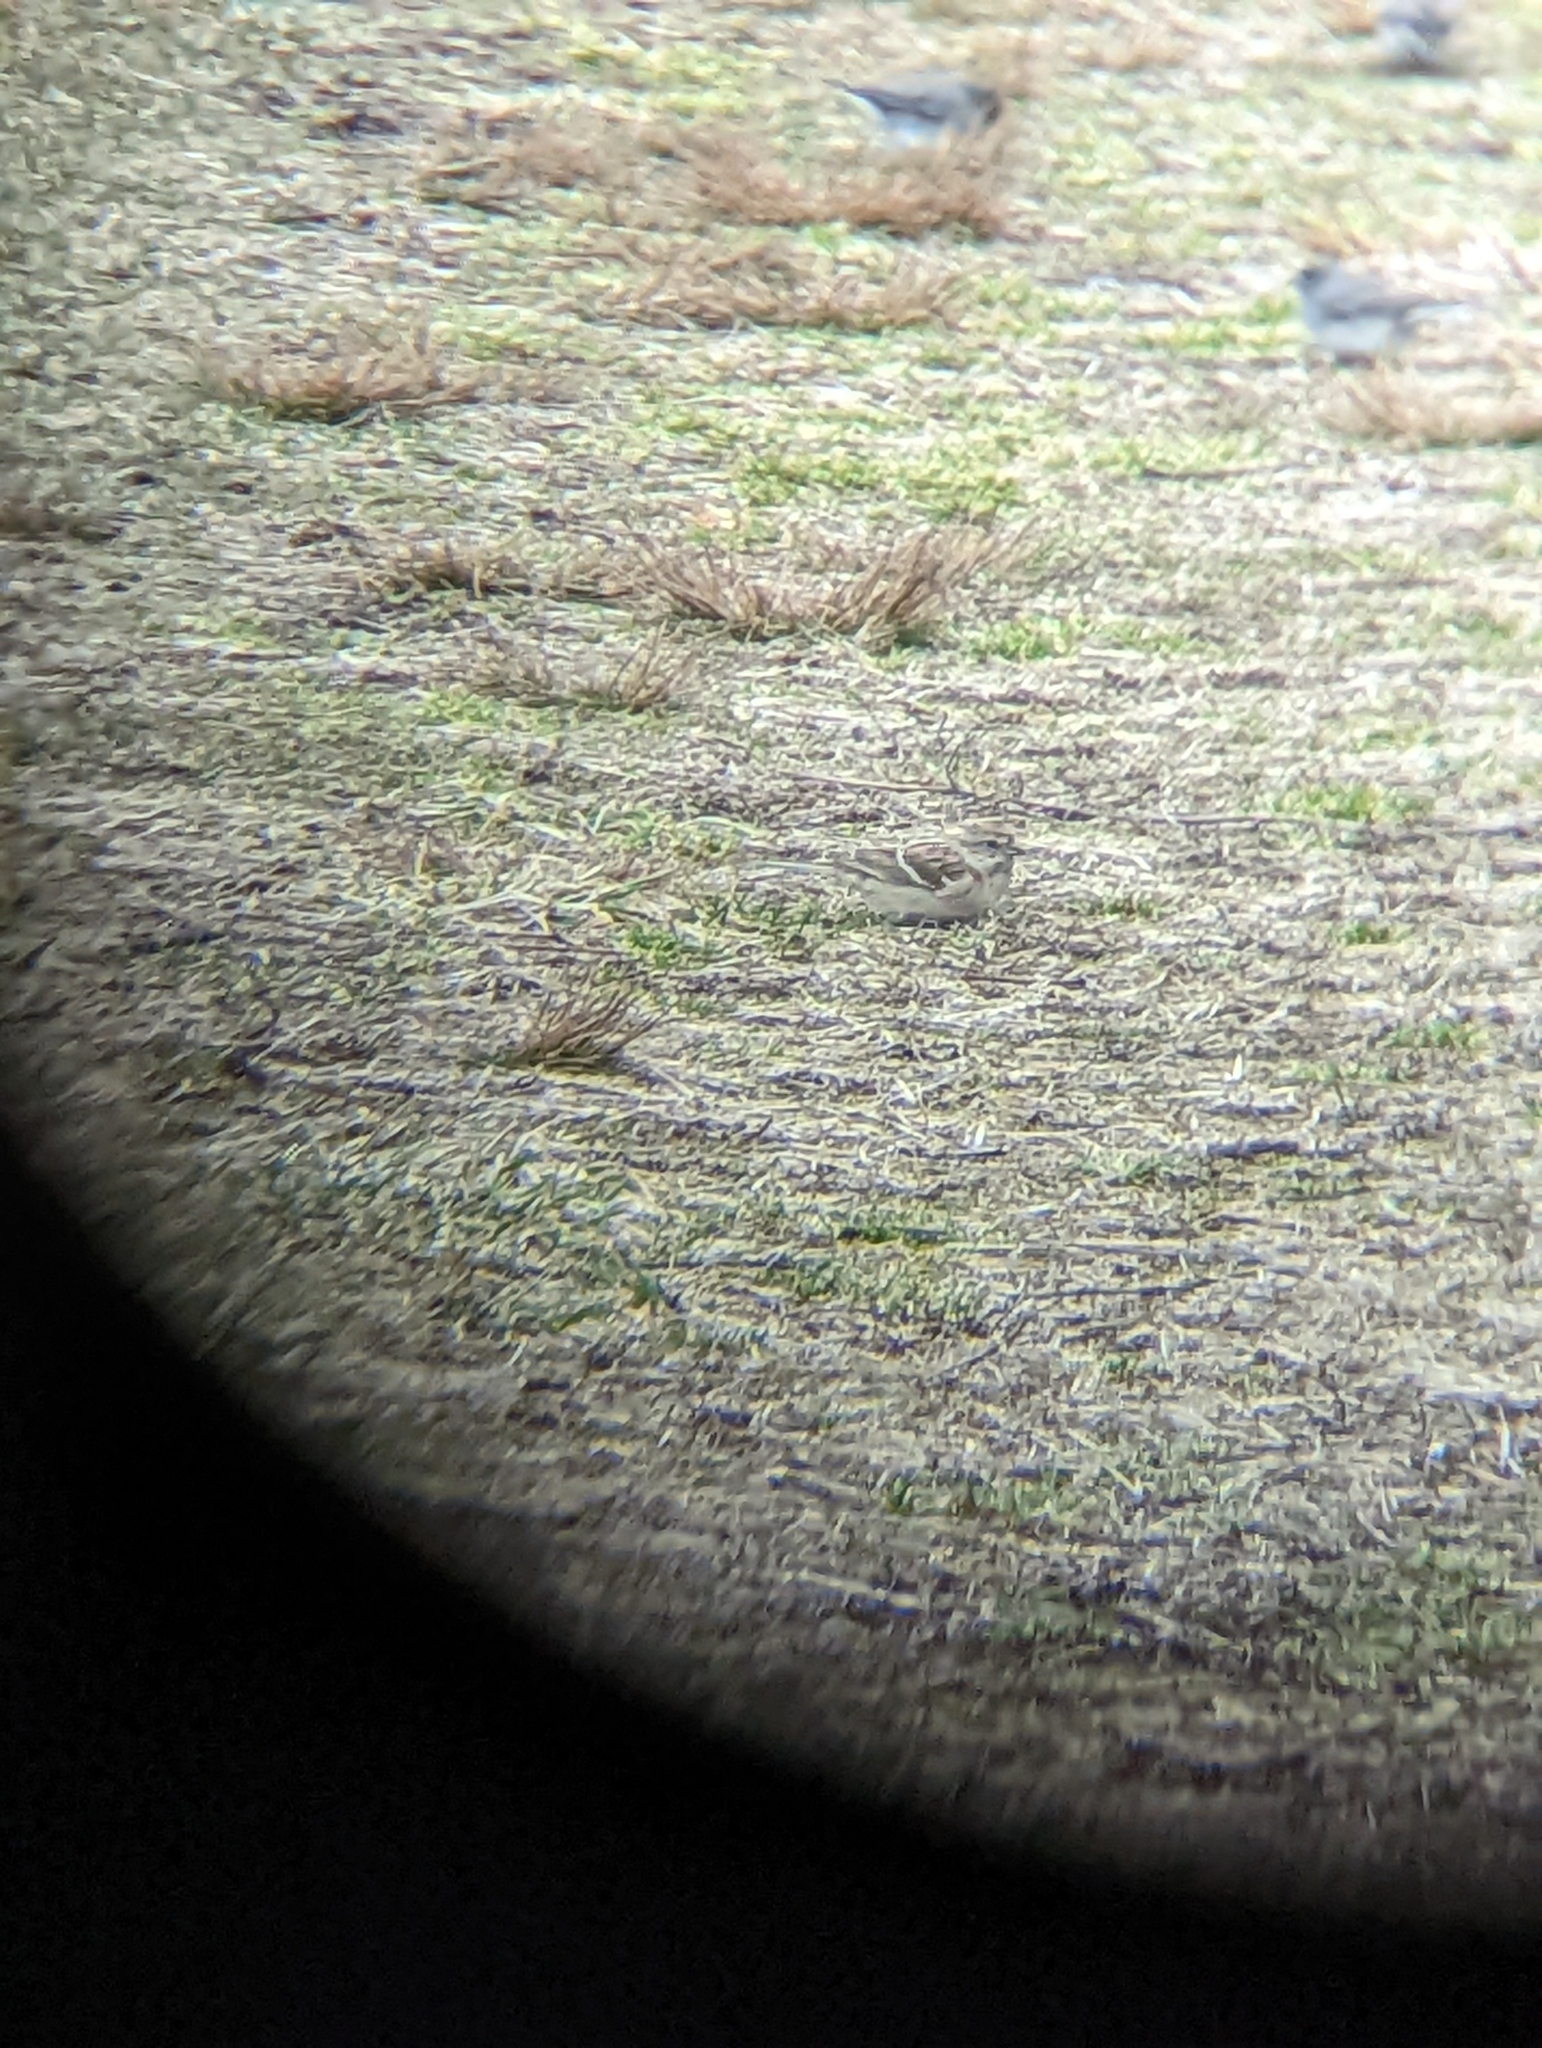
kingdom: Animalia
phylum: Chordata
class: Aves
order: Passeriformes
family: Passerellidae
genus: Spizelloides
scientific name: Spizelloides arborea
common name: American tree sparrow
